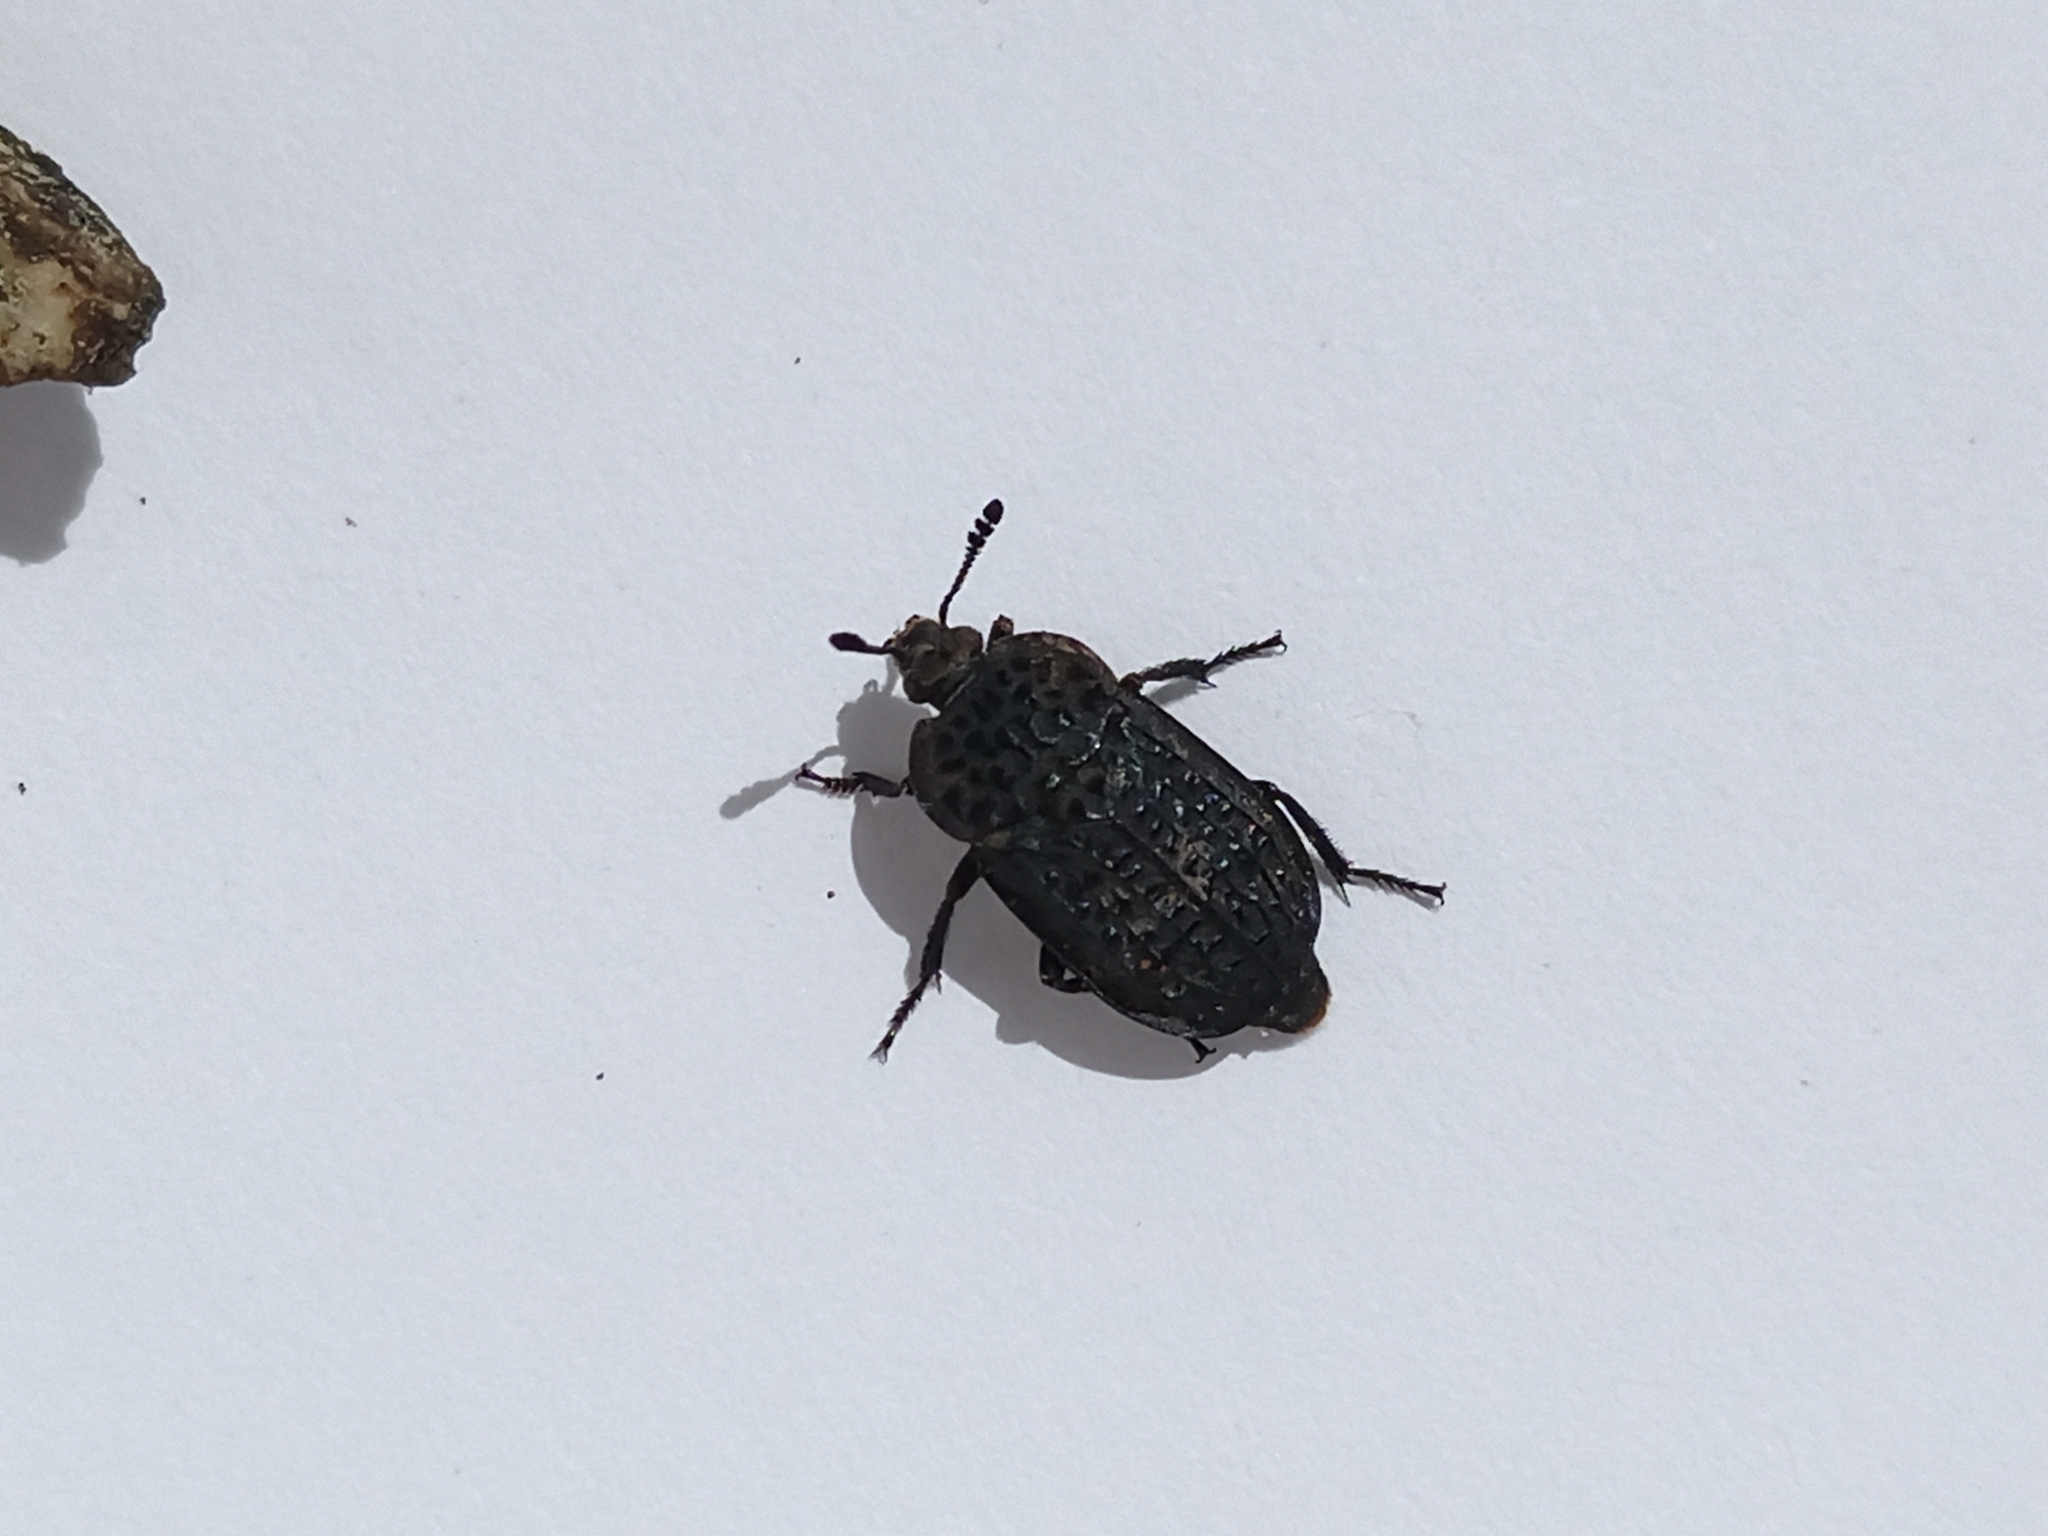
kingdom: Animalia
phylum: Arthropoda
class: Insecta
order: Coleoptera
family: Staphylinidae
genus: Thanatophilus
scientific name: Thanatophilus rugosus
